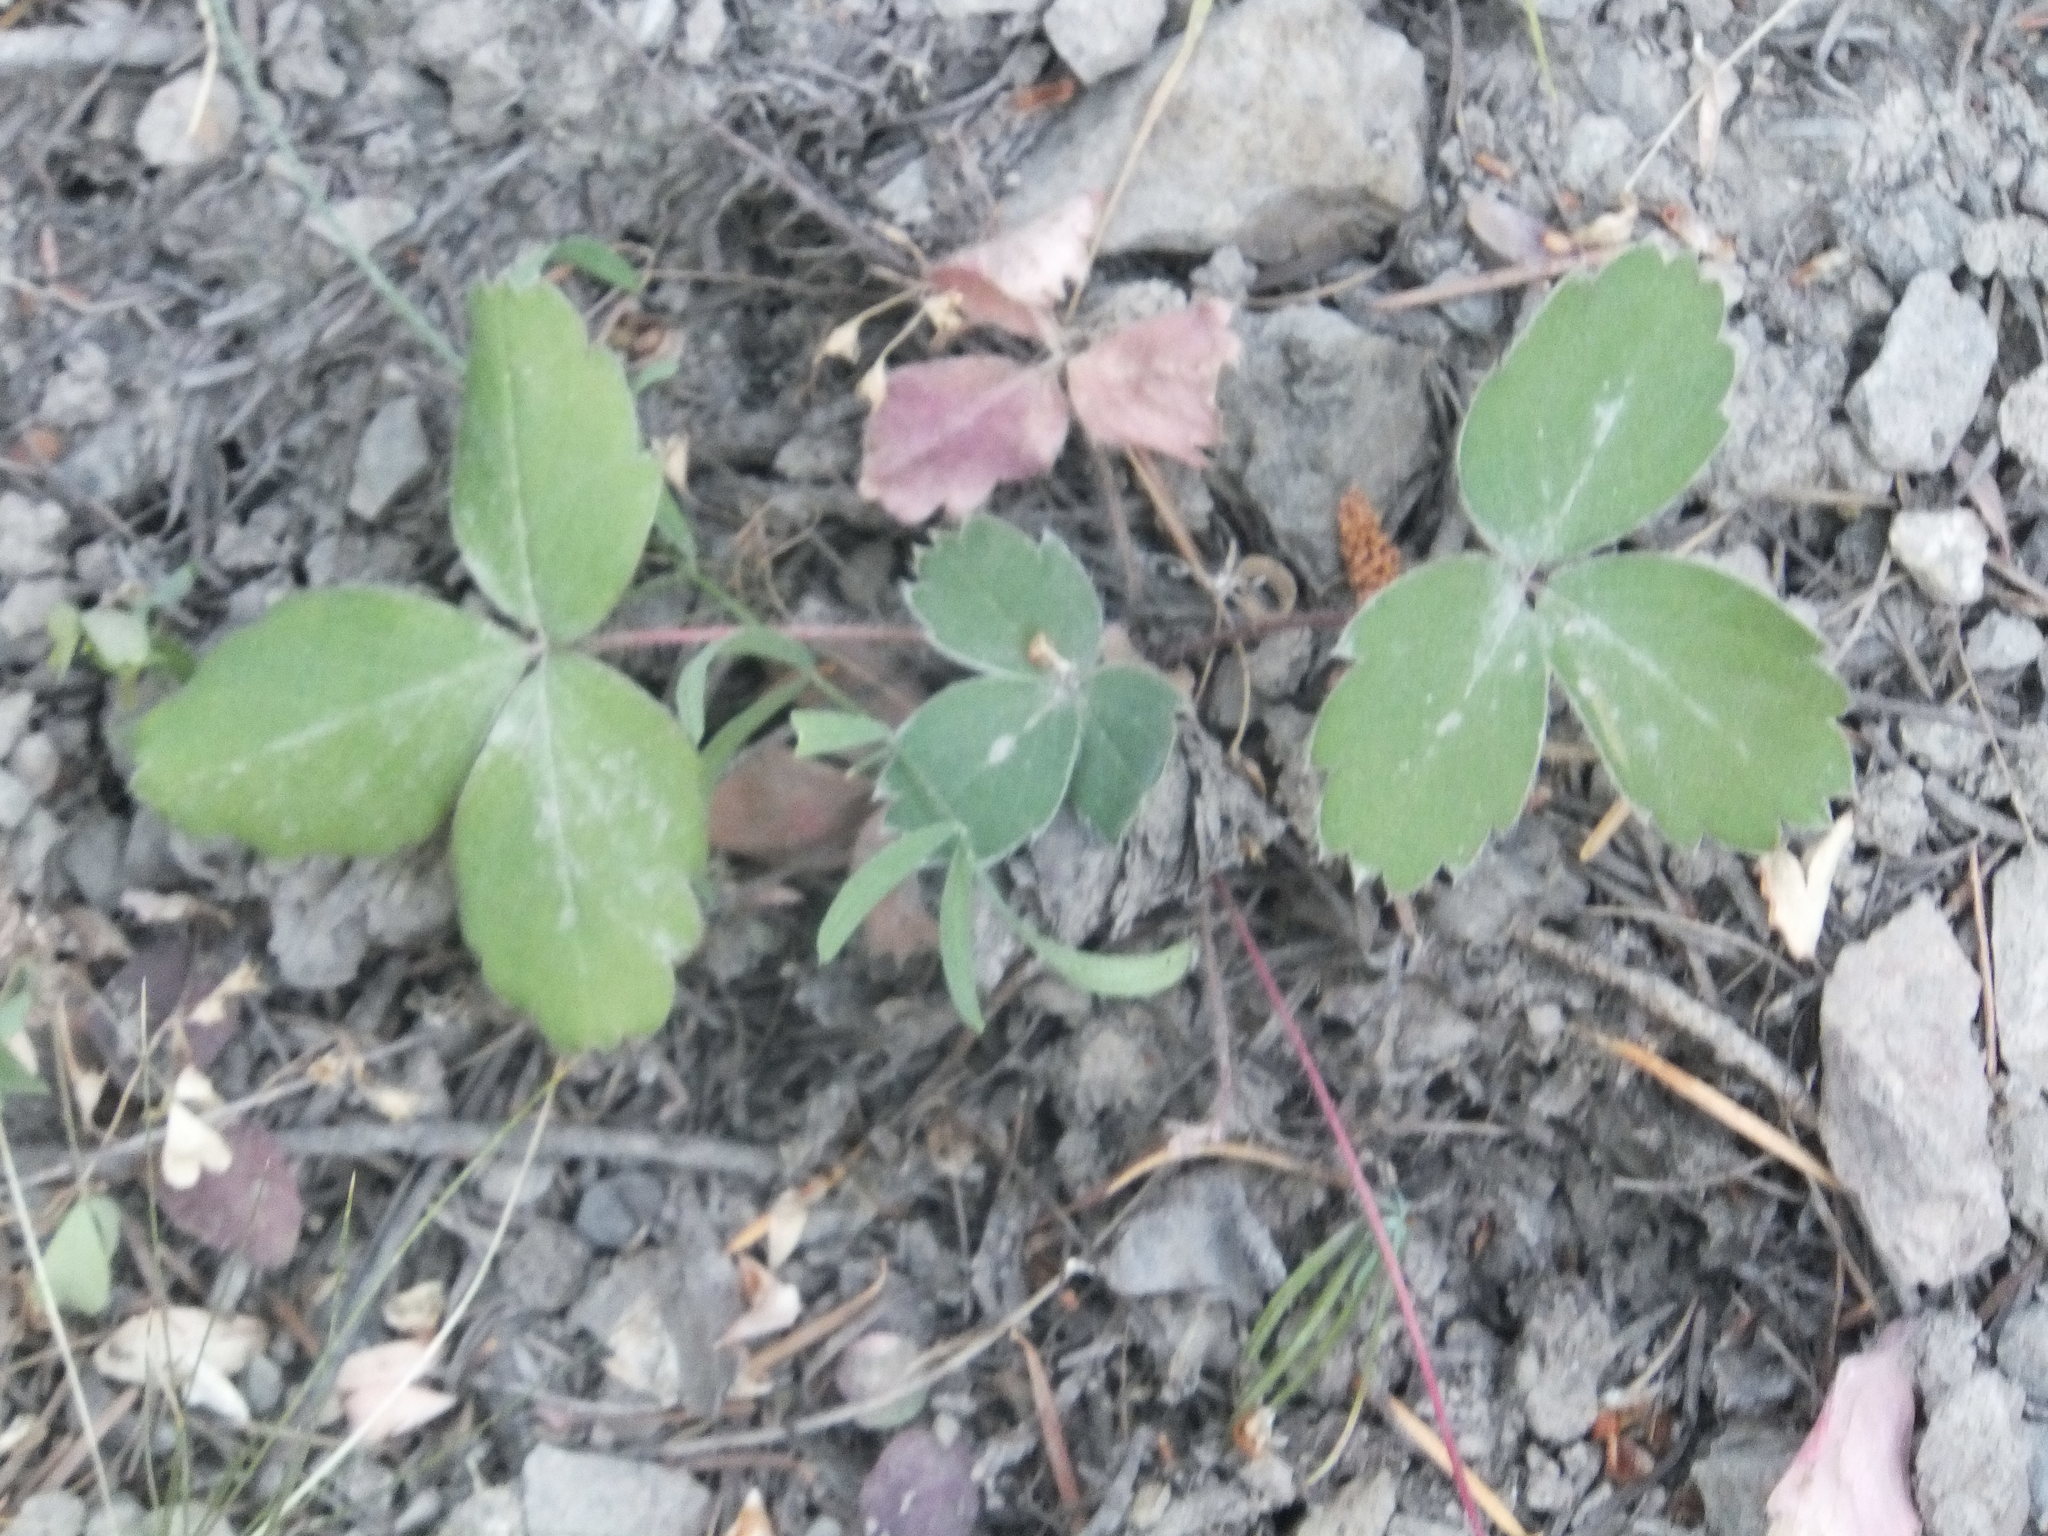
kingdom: Plantae
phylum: Tracheophyta
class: Magnoliopsida
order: Rosales
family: Rosaceae
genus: Fragaria
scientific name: Fragaria virginiana
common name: Thickleaved wild strawberry
